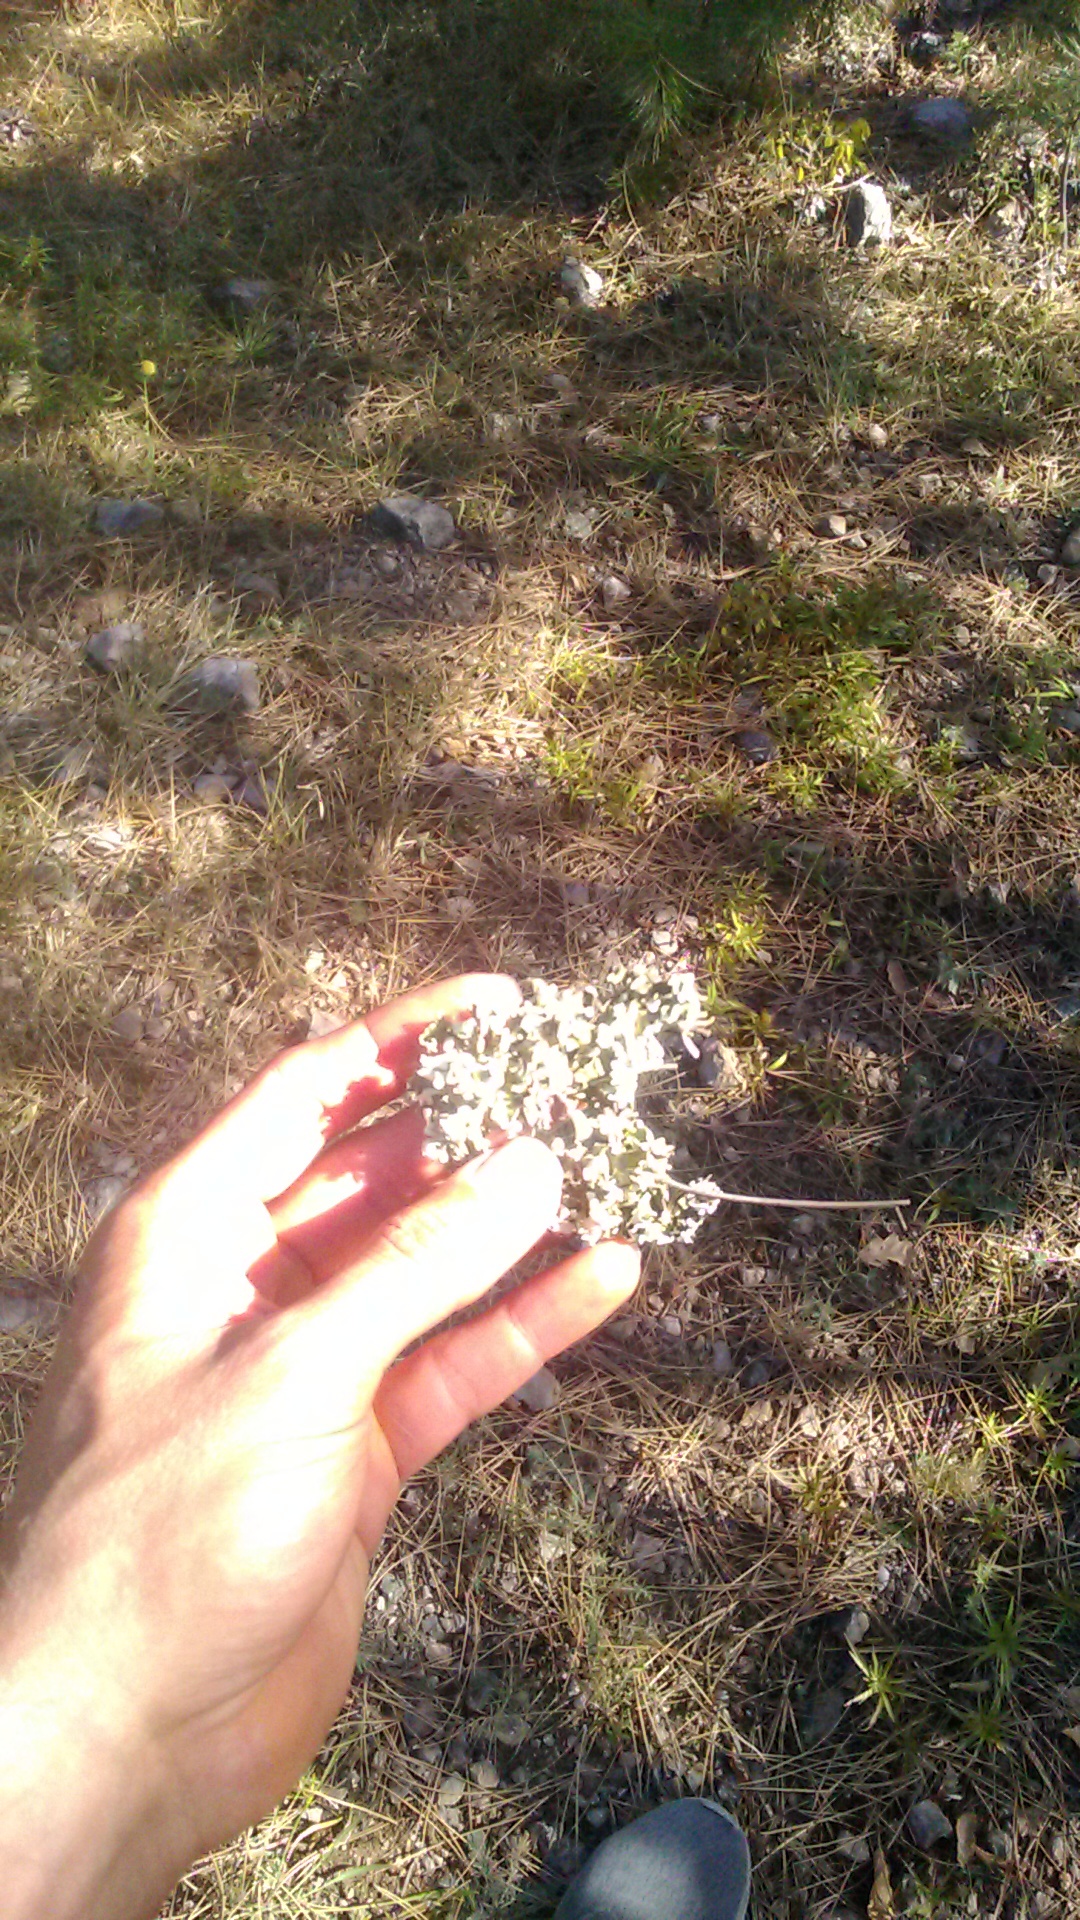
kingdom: Fungi
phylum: Ascomycota
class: Lecanoromycetes
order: Lecanorales
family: Cladoniaceae
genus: Cladonia
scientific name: Cladonia foliacea
